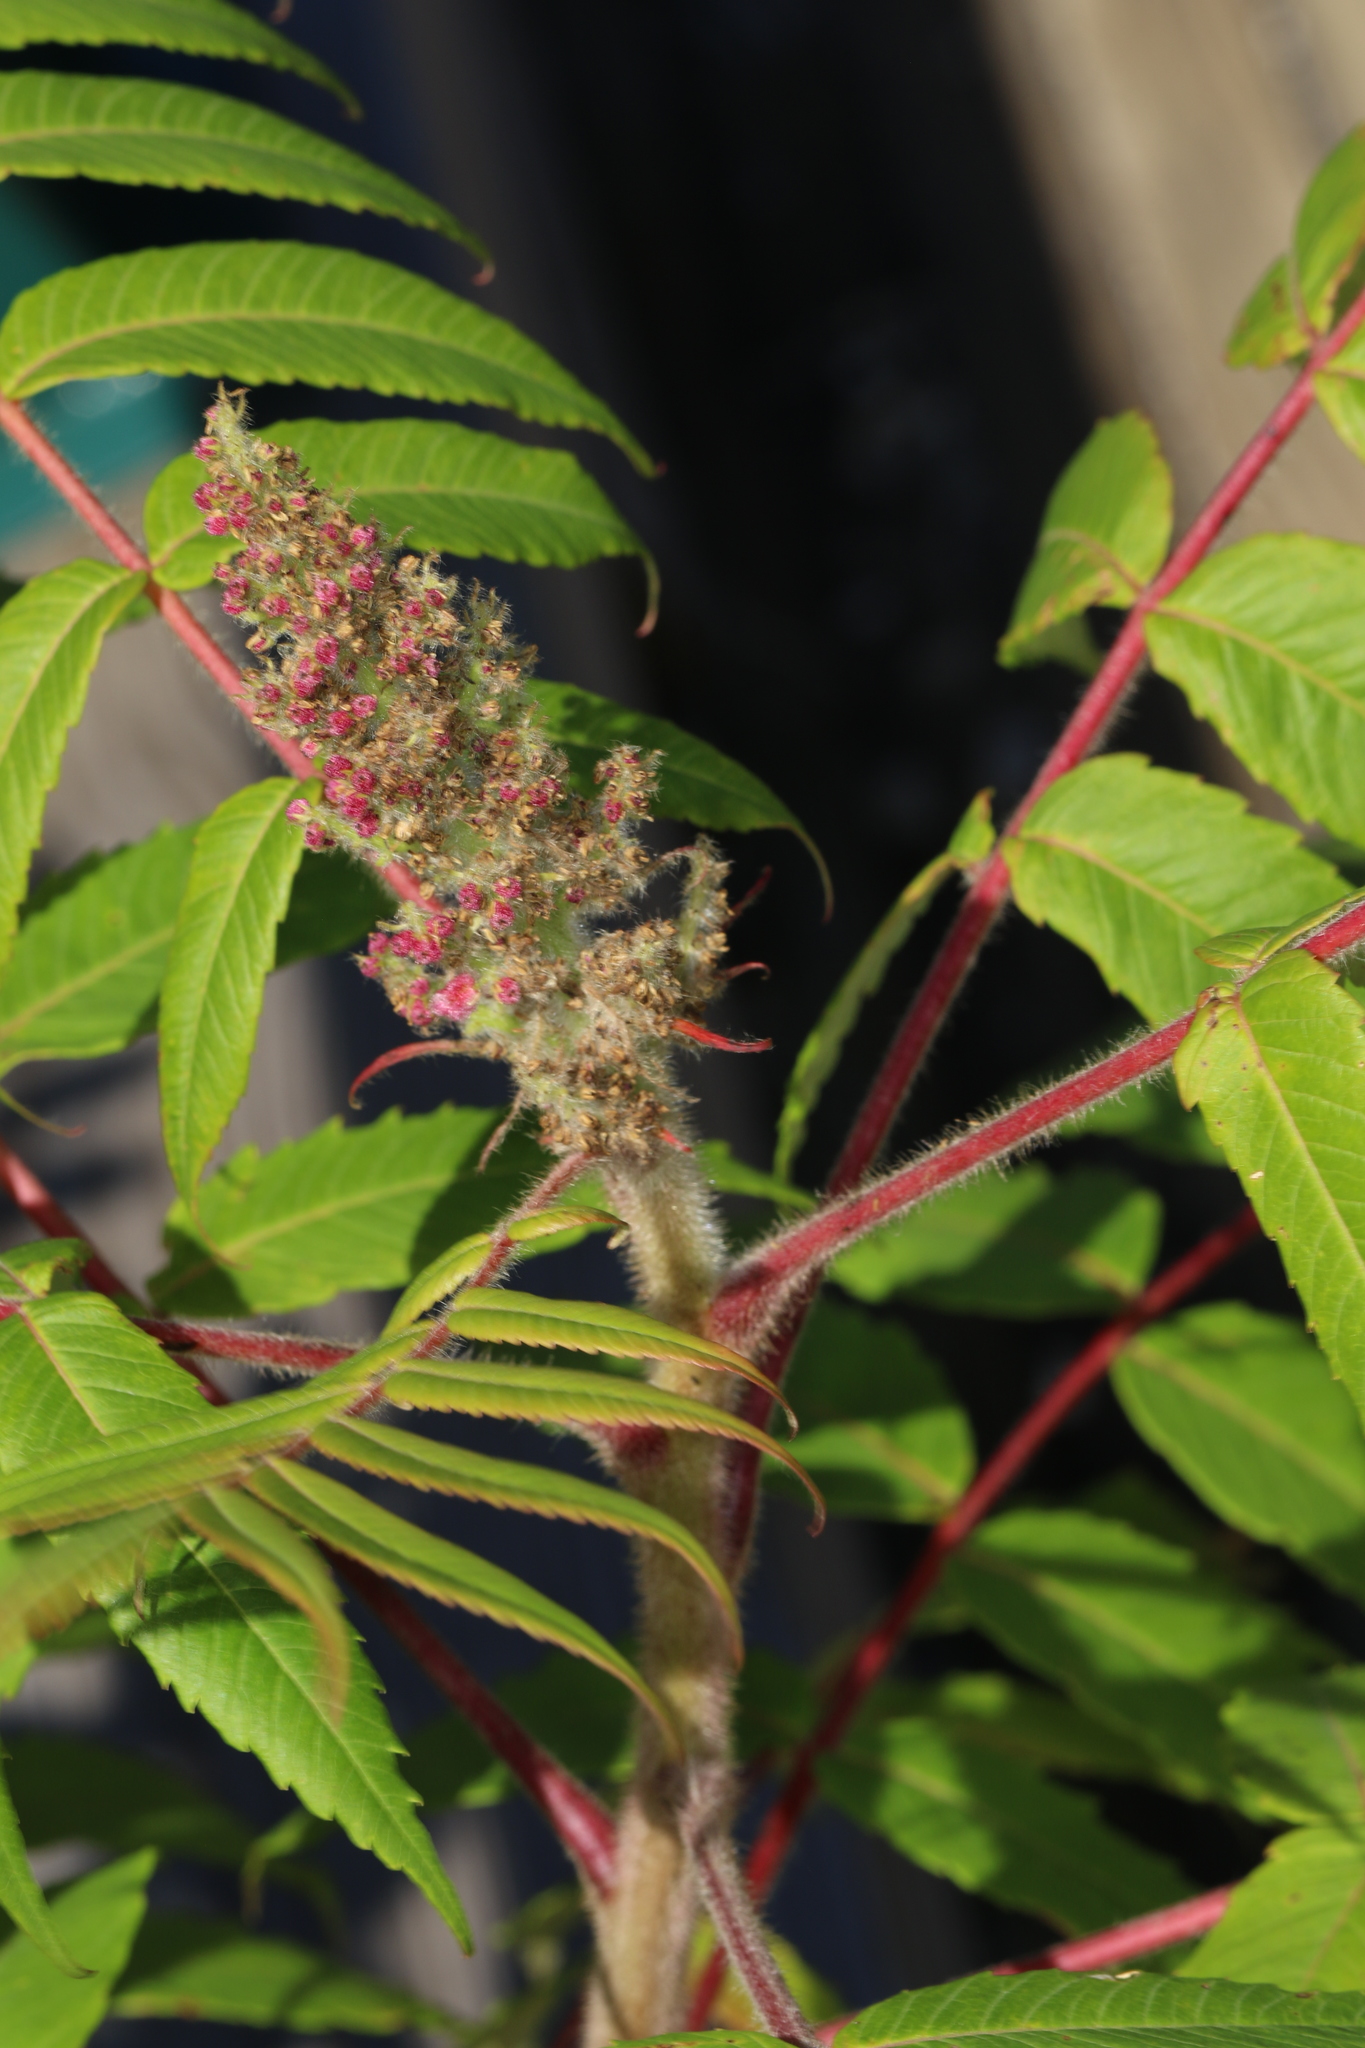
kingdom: Plantae
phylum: Tracheophyta
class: Magnoliopsida
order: Sapindales
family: Anacardiaceae
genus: Rhus
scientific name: Rhus typhina
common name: Staghorn sumac
